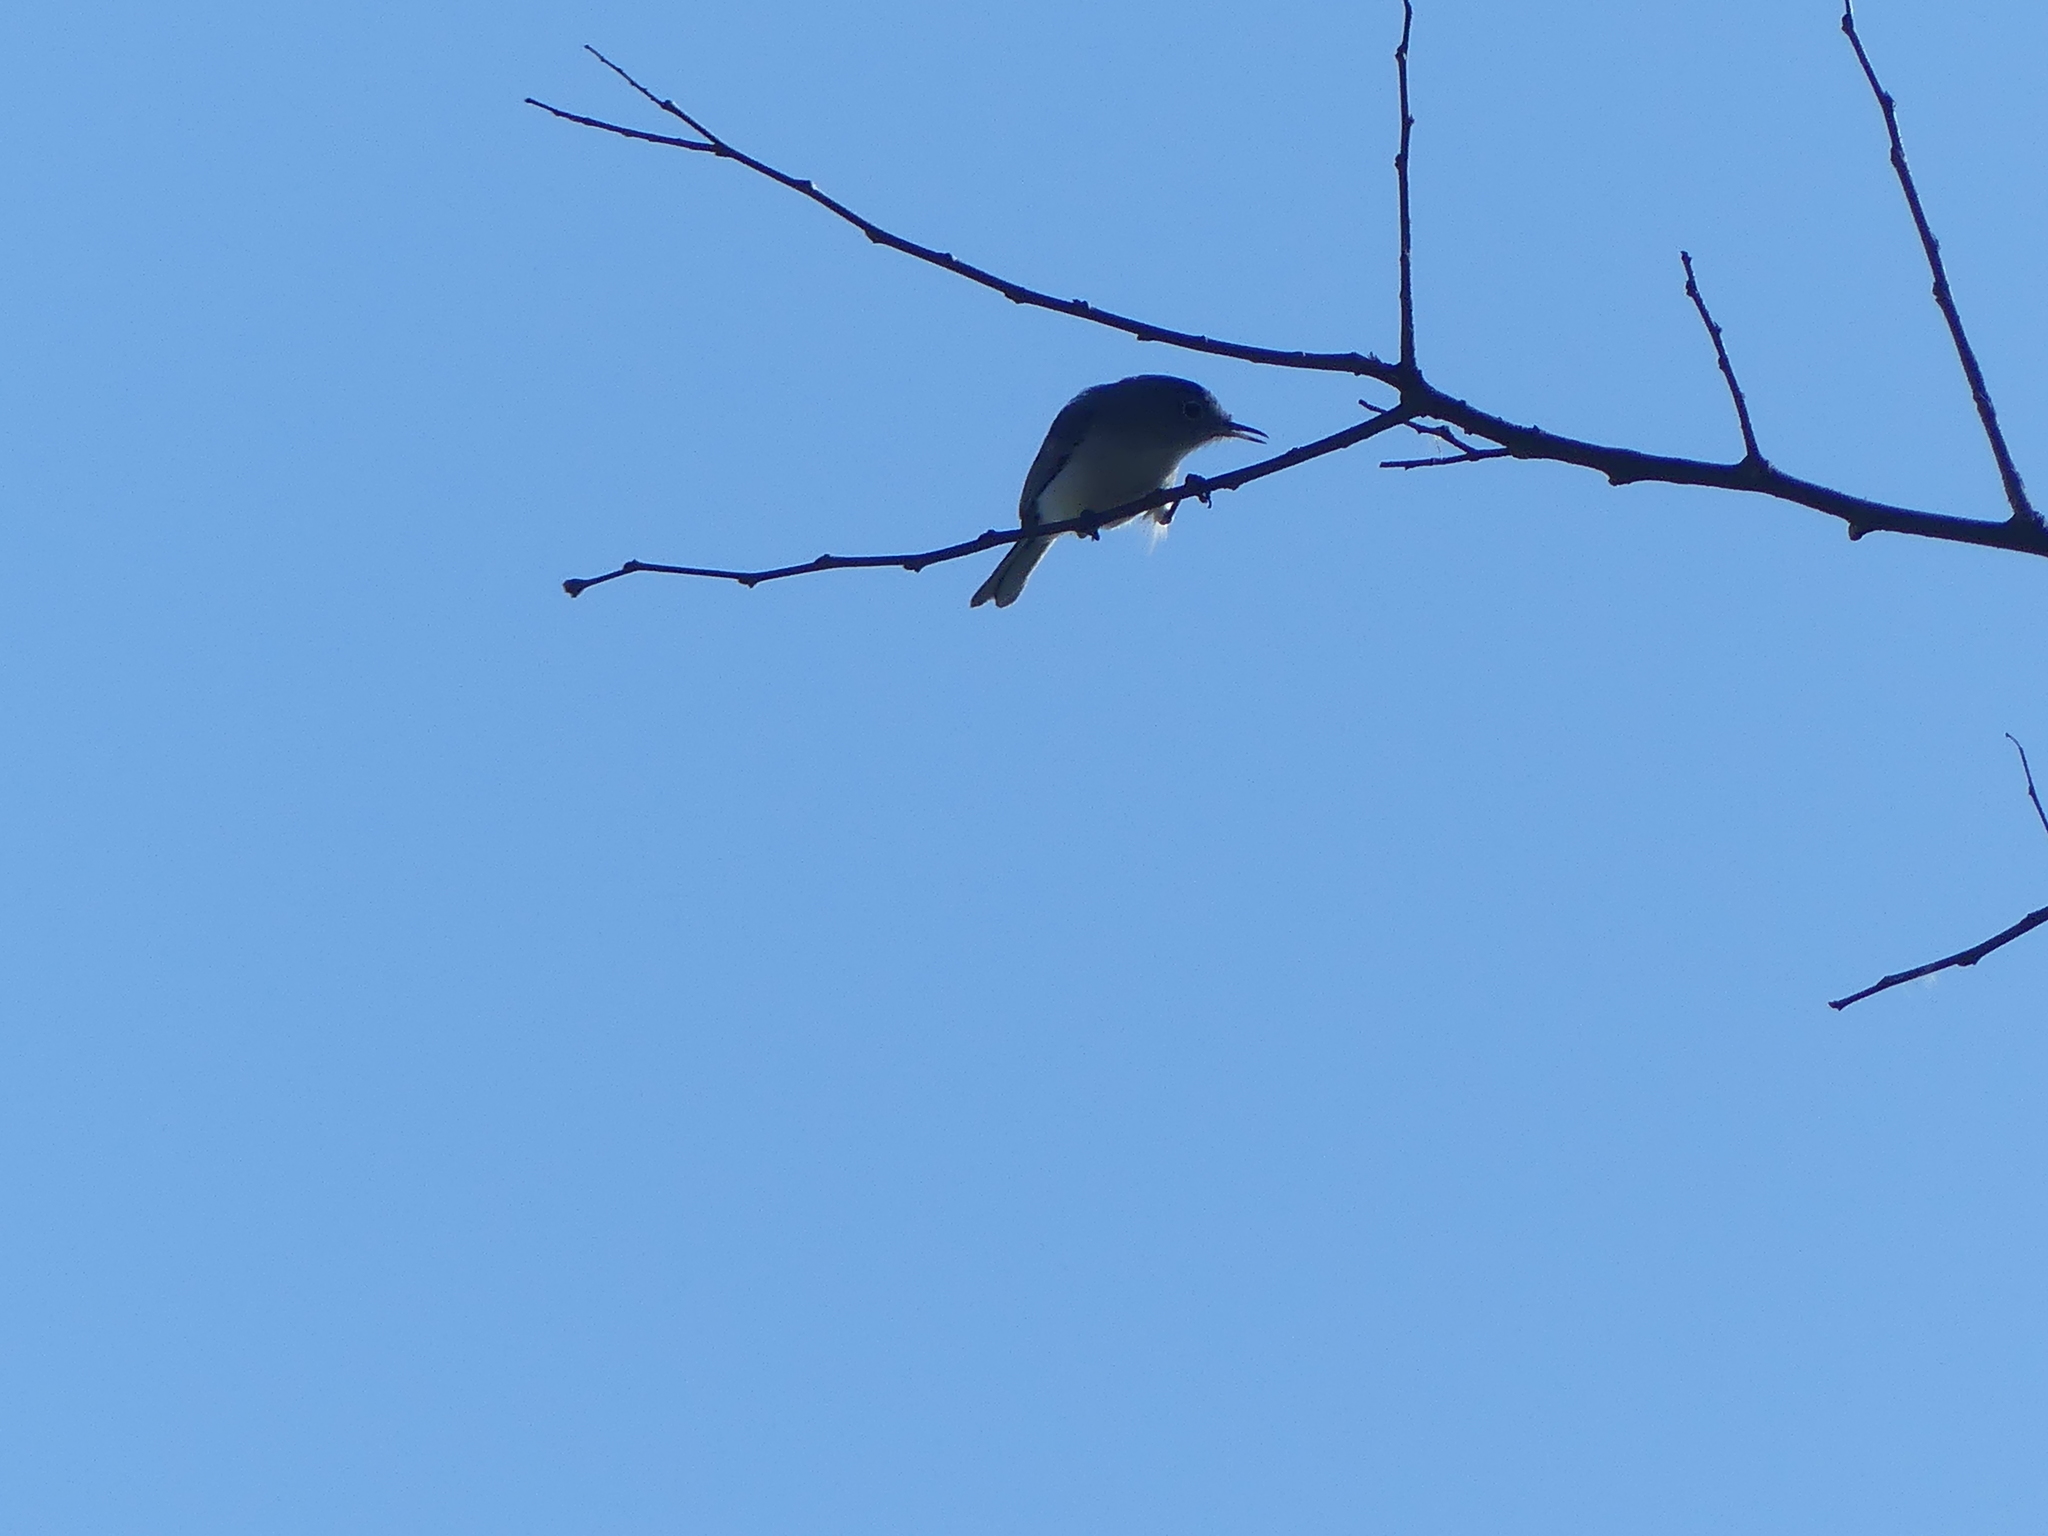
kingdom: Animalia
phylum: Chordata
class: Aves
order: Passeriformes
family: Polioptilidae
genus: Polioptila
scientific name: Polioptila caerulea
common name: Blue-gray gnatcatcher
